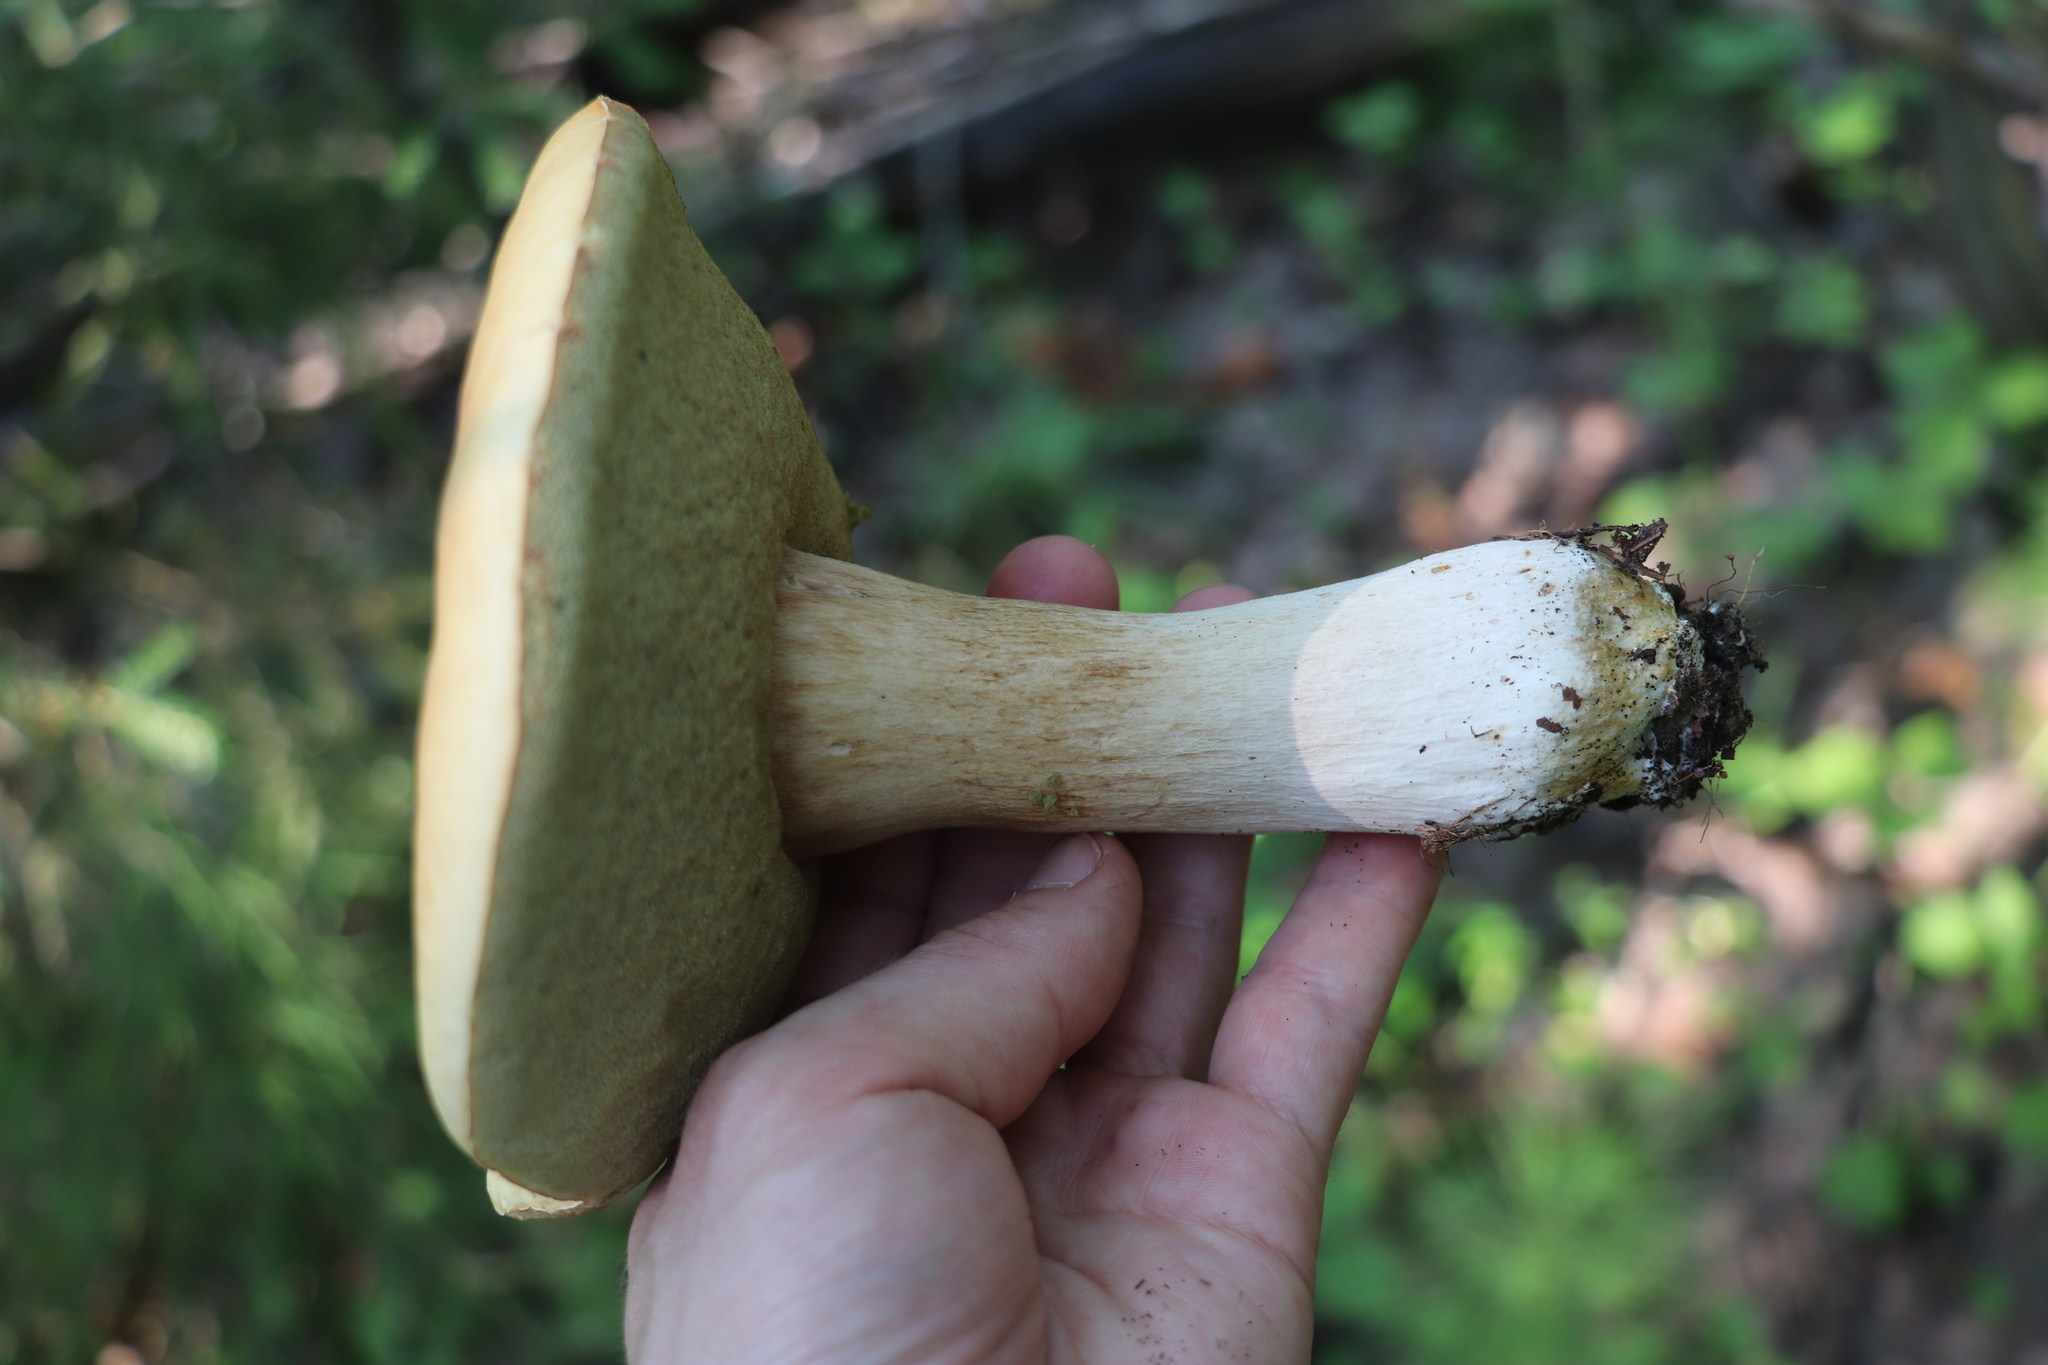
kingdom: Fungi
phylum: Basidiomycota
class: Agaricomycetes
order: Boletales
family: Boletaceae
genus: Boletus
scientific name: Boletus edulis
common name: Cep
